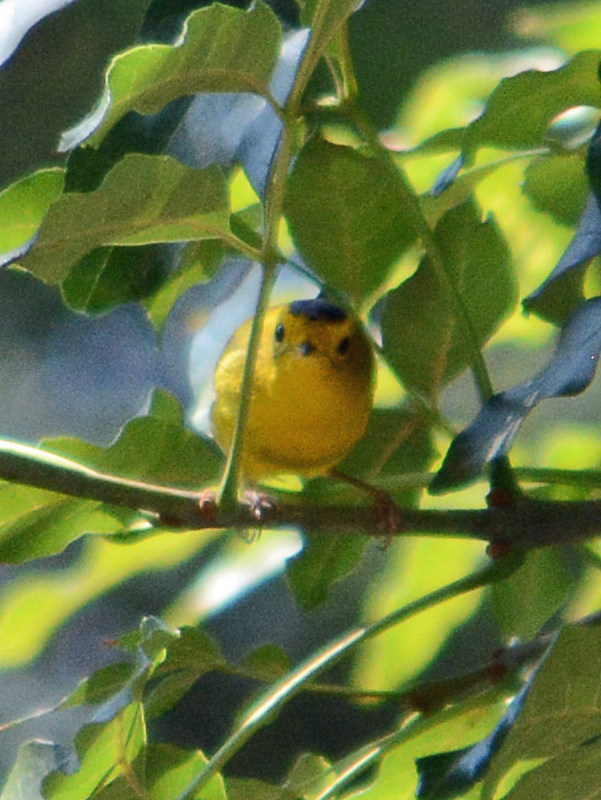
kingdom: Animalia
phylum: Chordata
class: Aves
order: Passeriformes
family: Parulidae
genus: Cardellina
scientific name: Cardellina pusilla
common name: Wilson's warbler
